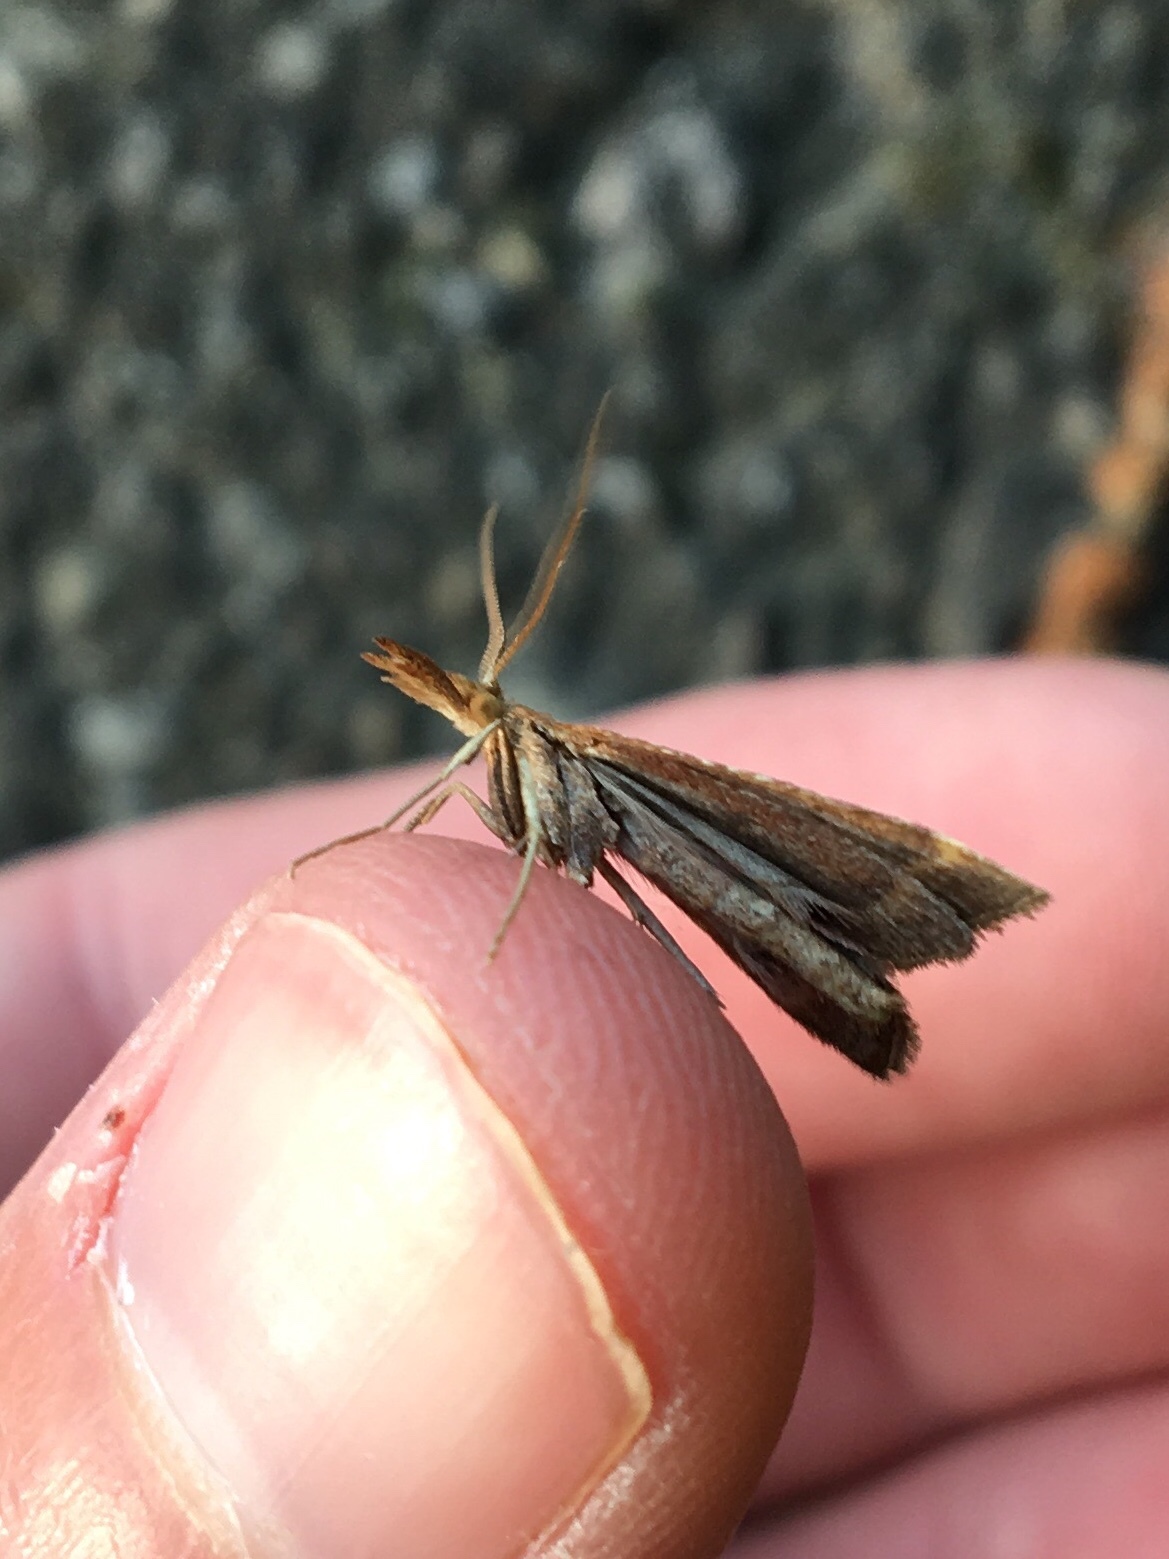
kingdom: Animalia
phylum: Arthropoda
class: Insecta
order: Lepidoptera
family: Pyralidae
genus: Synaphe
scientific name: Synaphe punctalis
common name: Long-legged tabby
